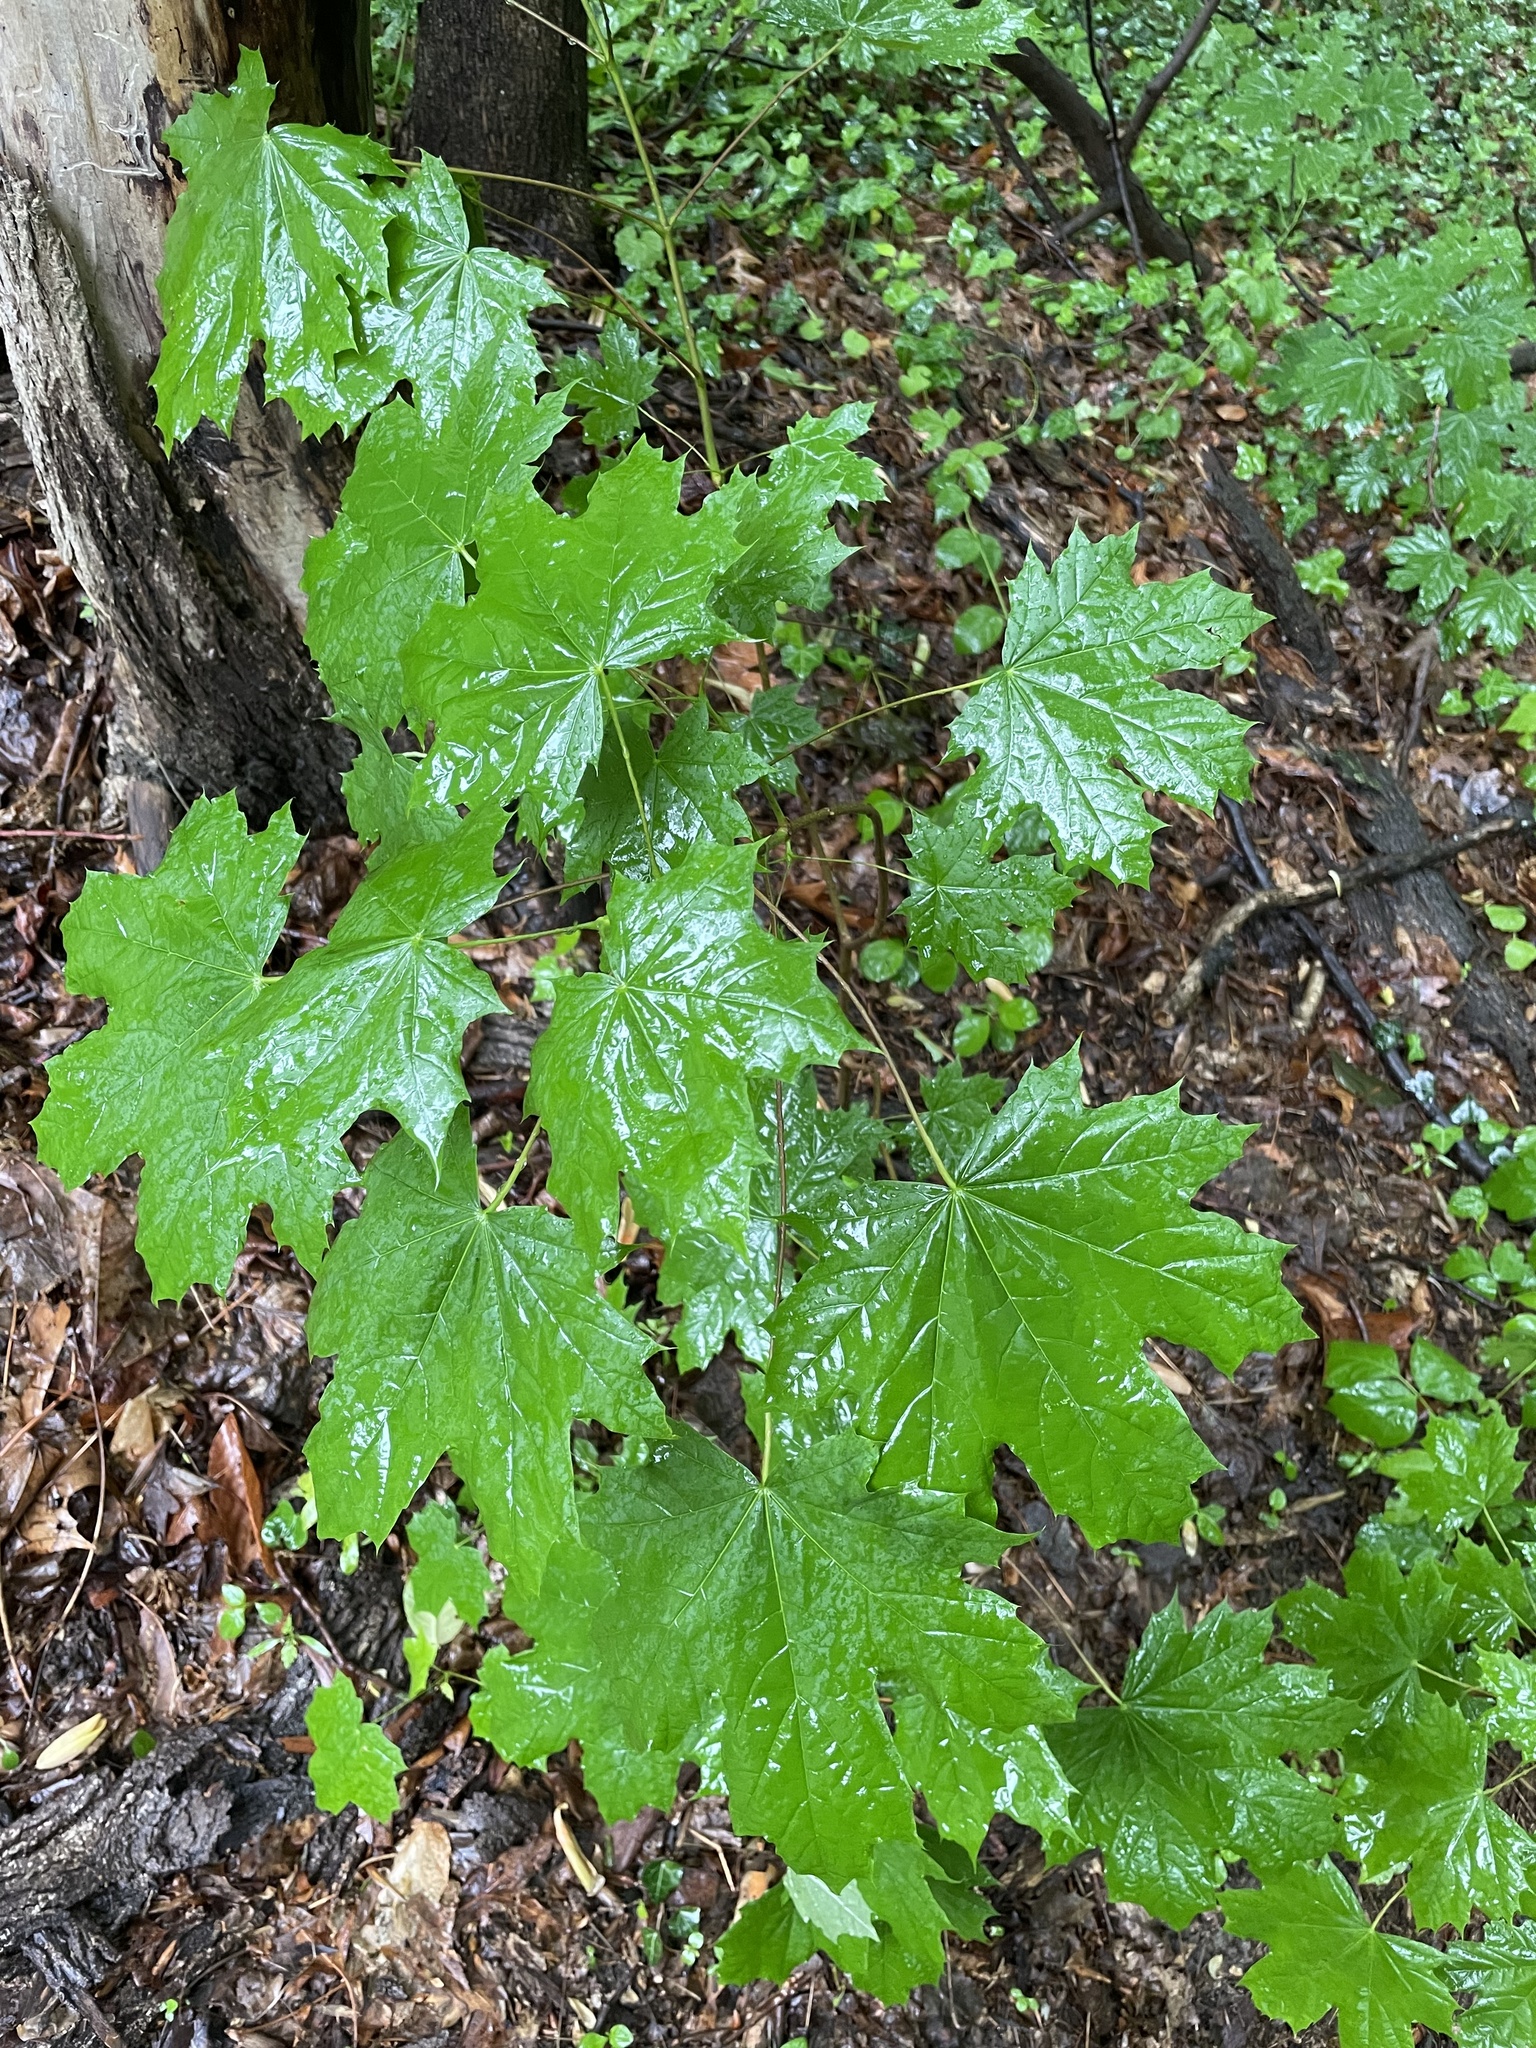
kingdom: Plantae
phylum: Tracheophyta
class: Magnoliopsida
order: Sapindales
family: Sapindaceae
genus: Acer
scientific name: Acer platanoides
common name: Norway maple
